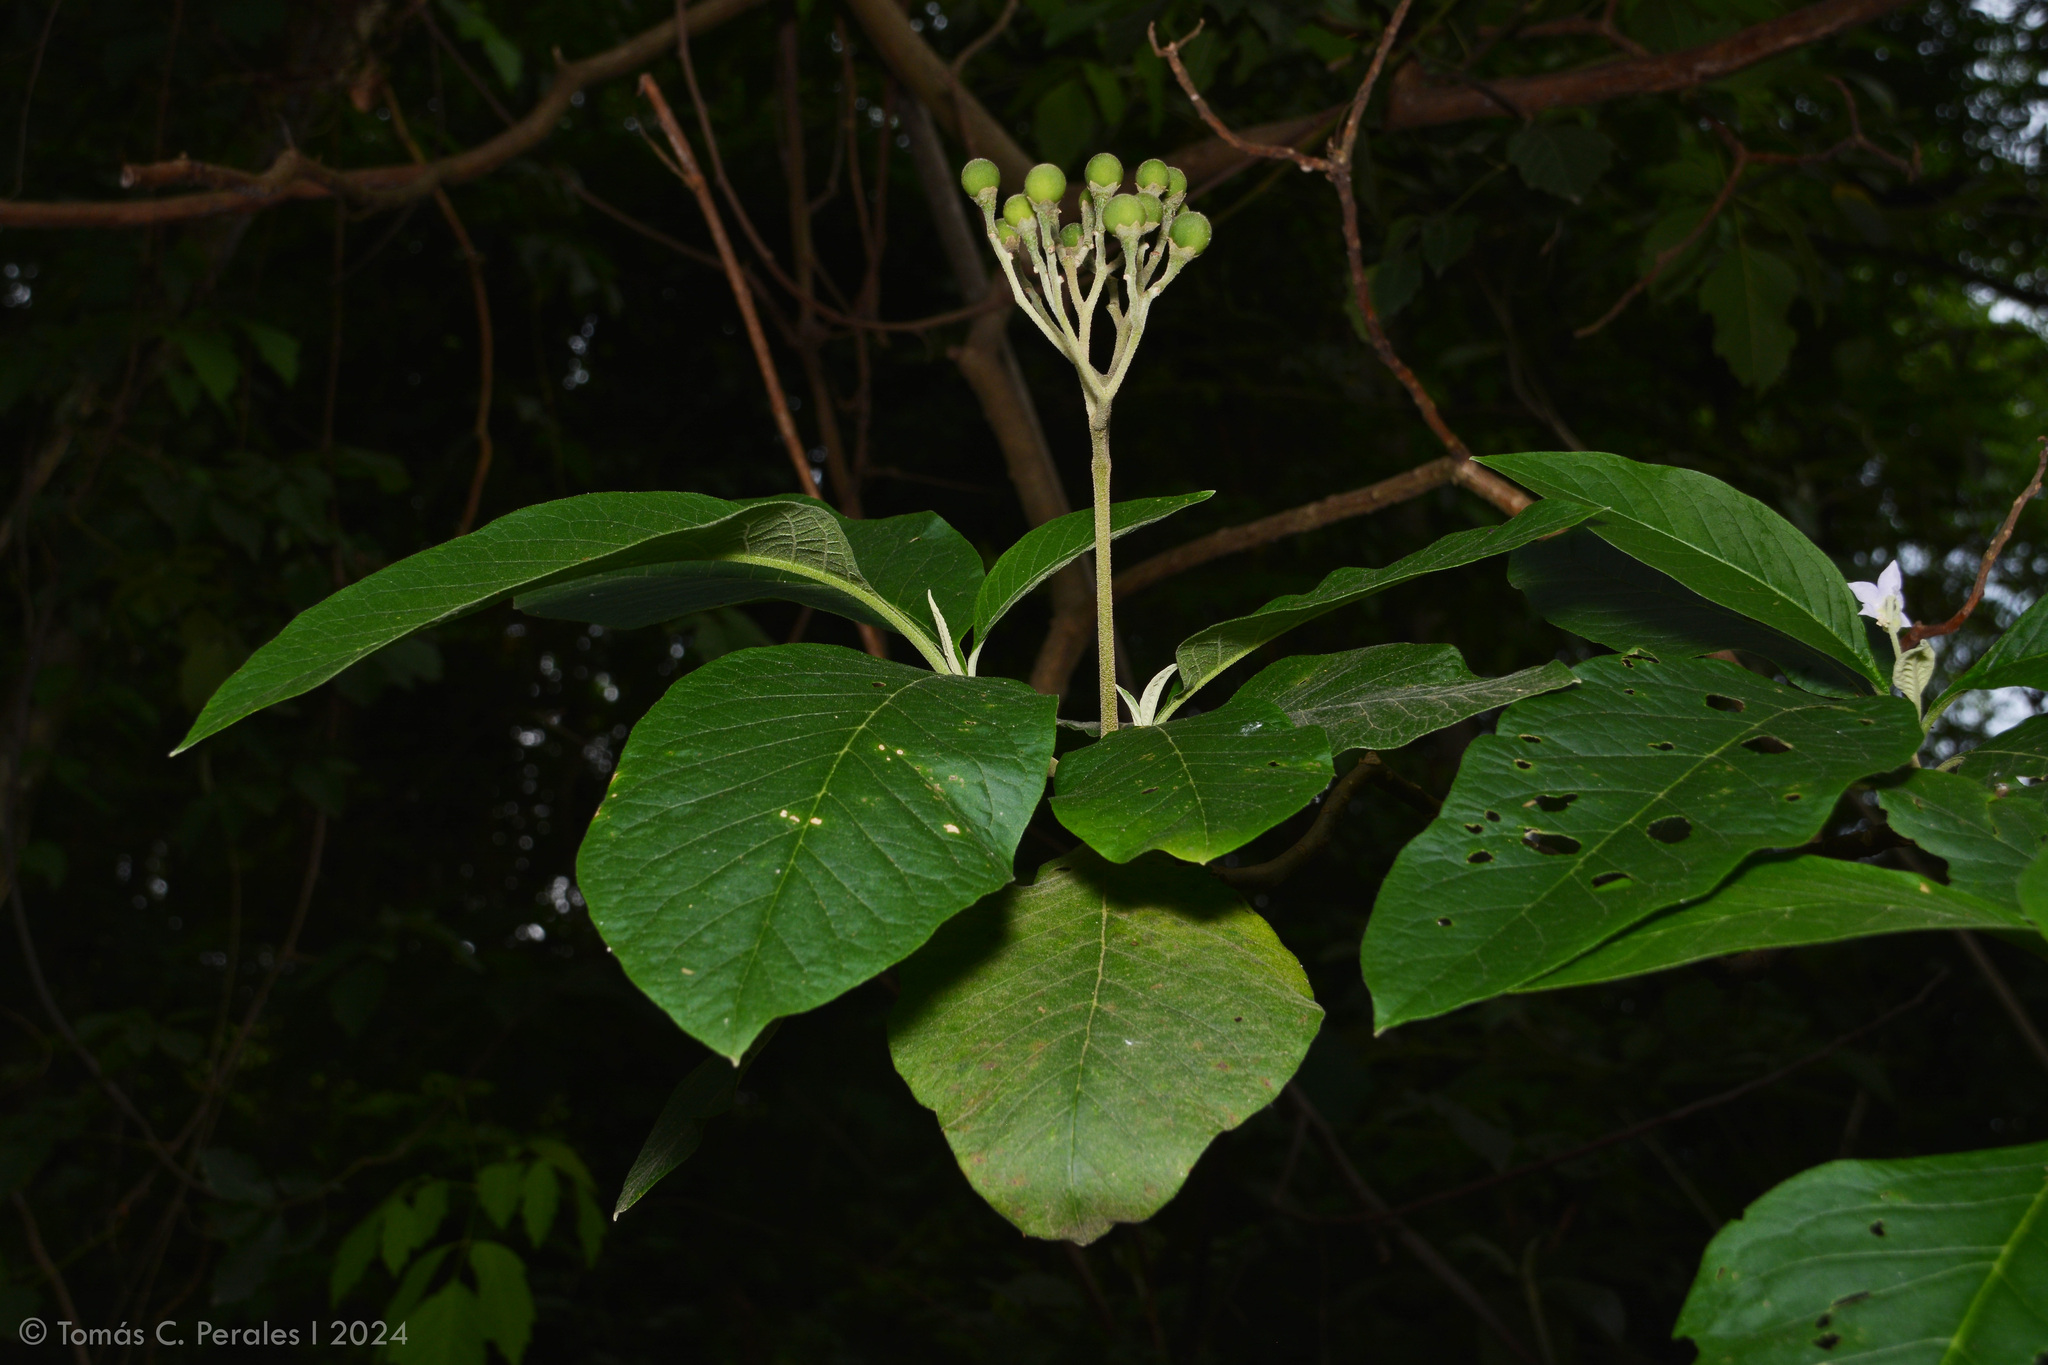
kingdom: Plantae
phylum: Tracheophyta
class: Magnoliopsida
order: Solanales
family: Solanaceae
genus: Solanum
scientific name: Solanum riparium
